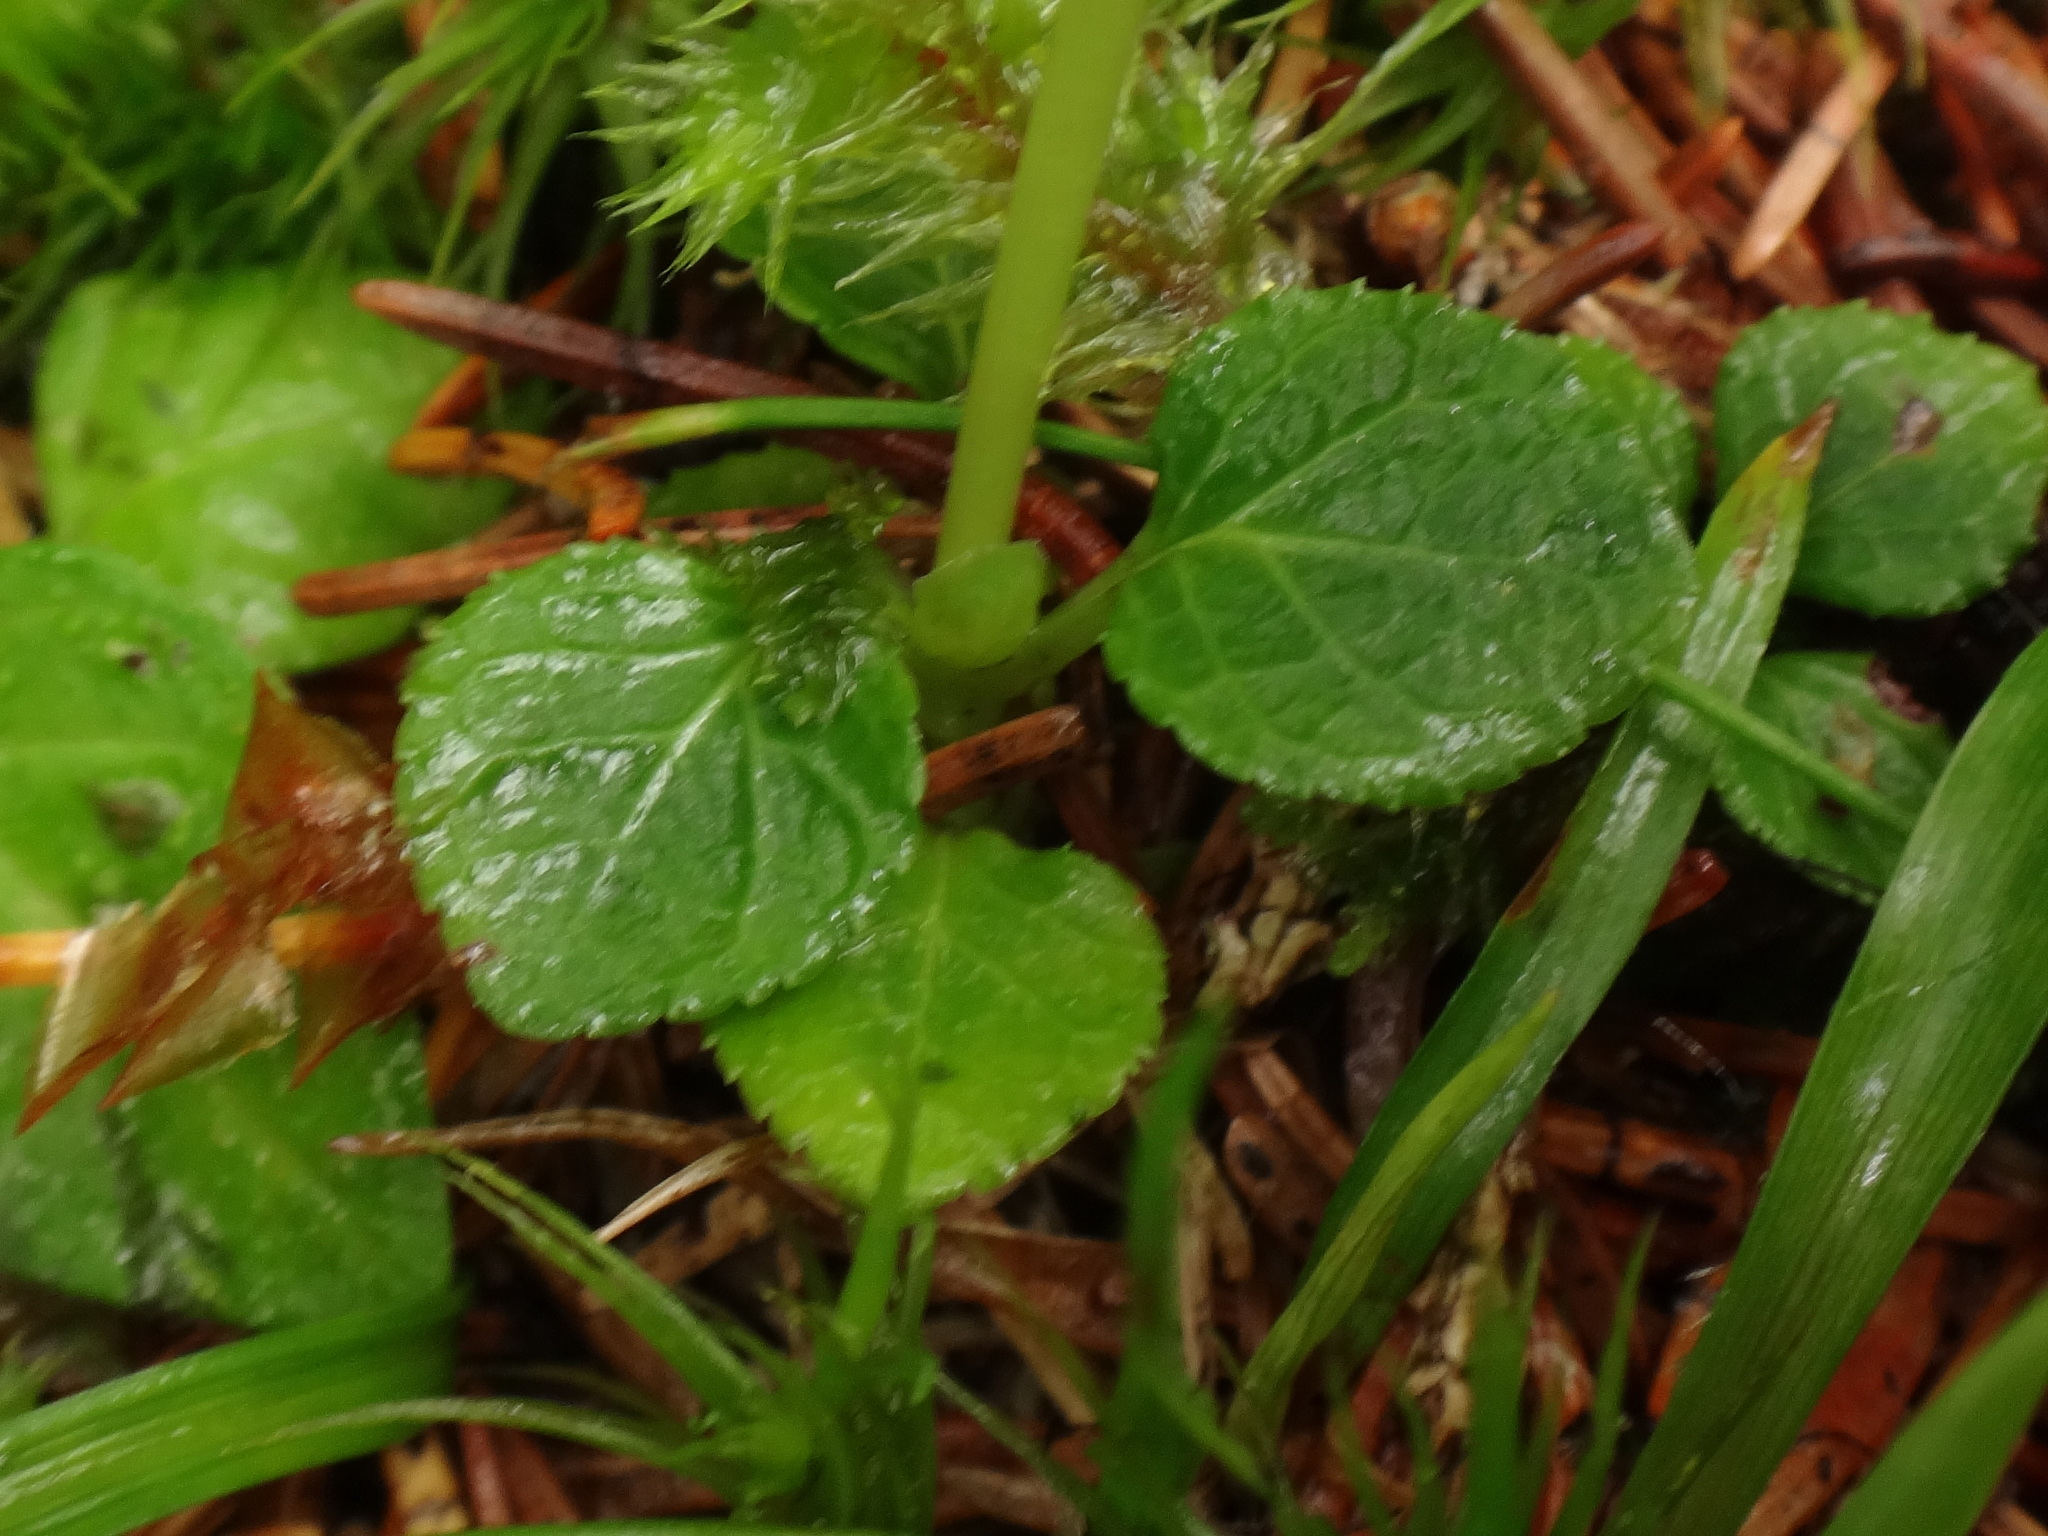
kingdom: Plantae
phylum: Tracheophyta
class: Magnoliopsida
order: Ericales
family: Ericaceae
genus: Moneses
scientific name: Moneses uniflora
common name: One-flowered wintergreen
